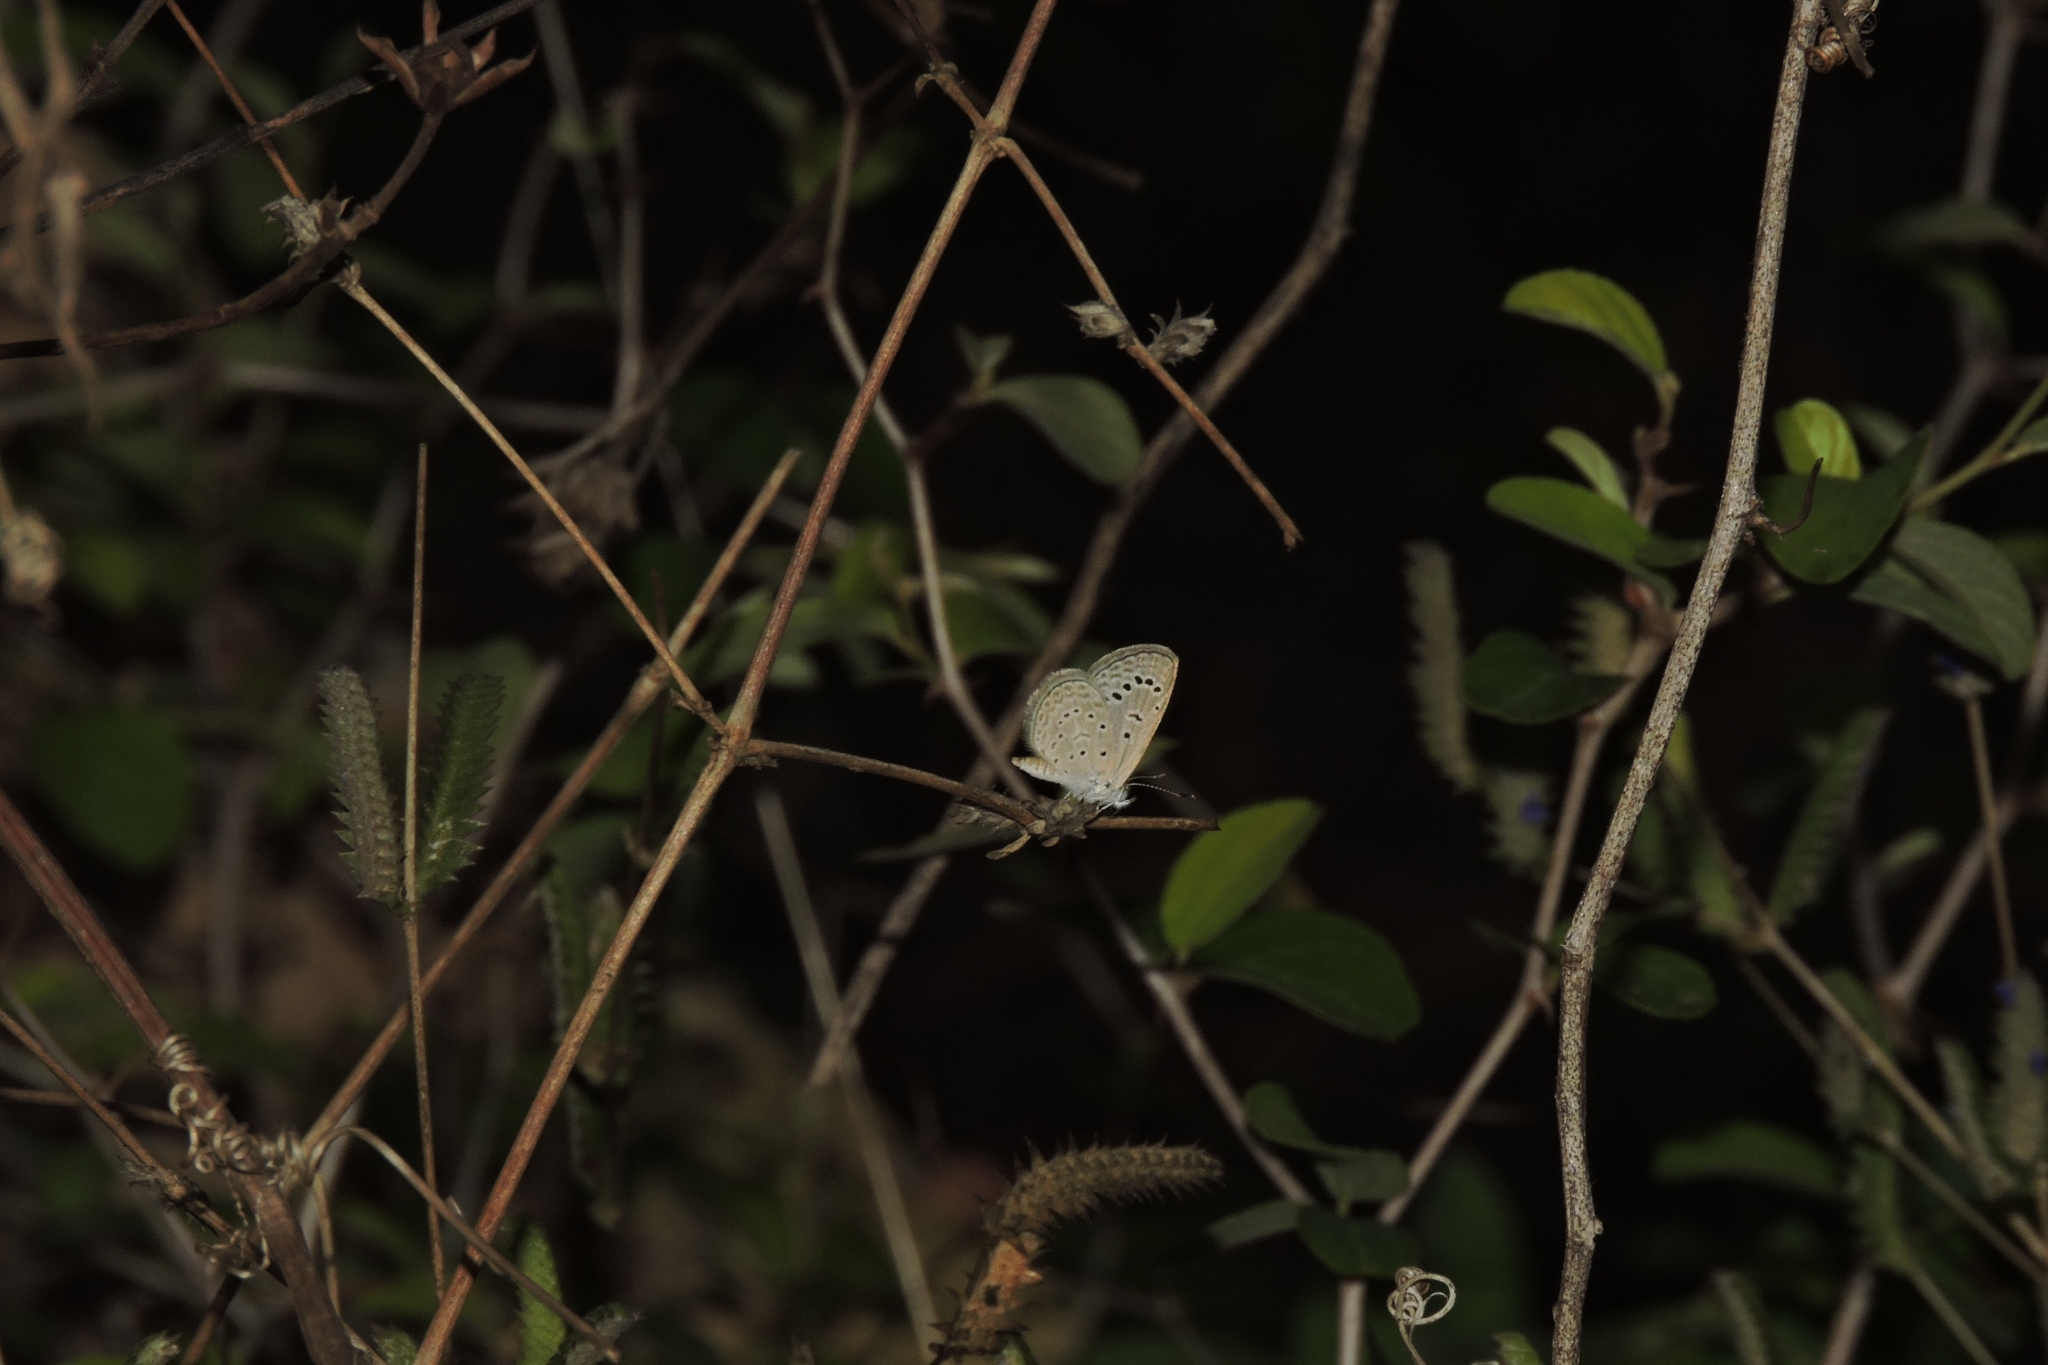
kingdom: Animalia
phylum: Arthropoda
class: Insecta
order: Lepidoptera
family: Lycaenidae
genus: Zizeeria
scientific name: Zizeeria karsandra
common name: Dark grass blue
